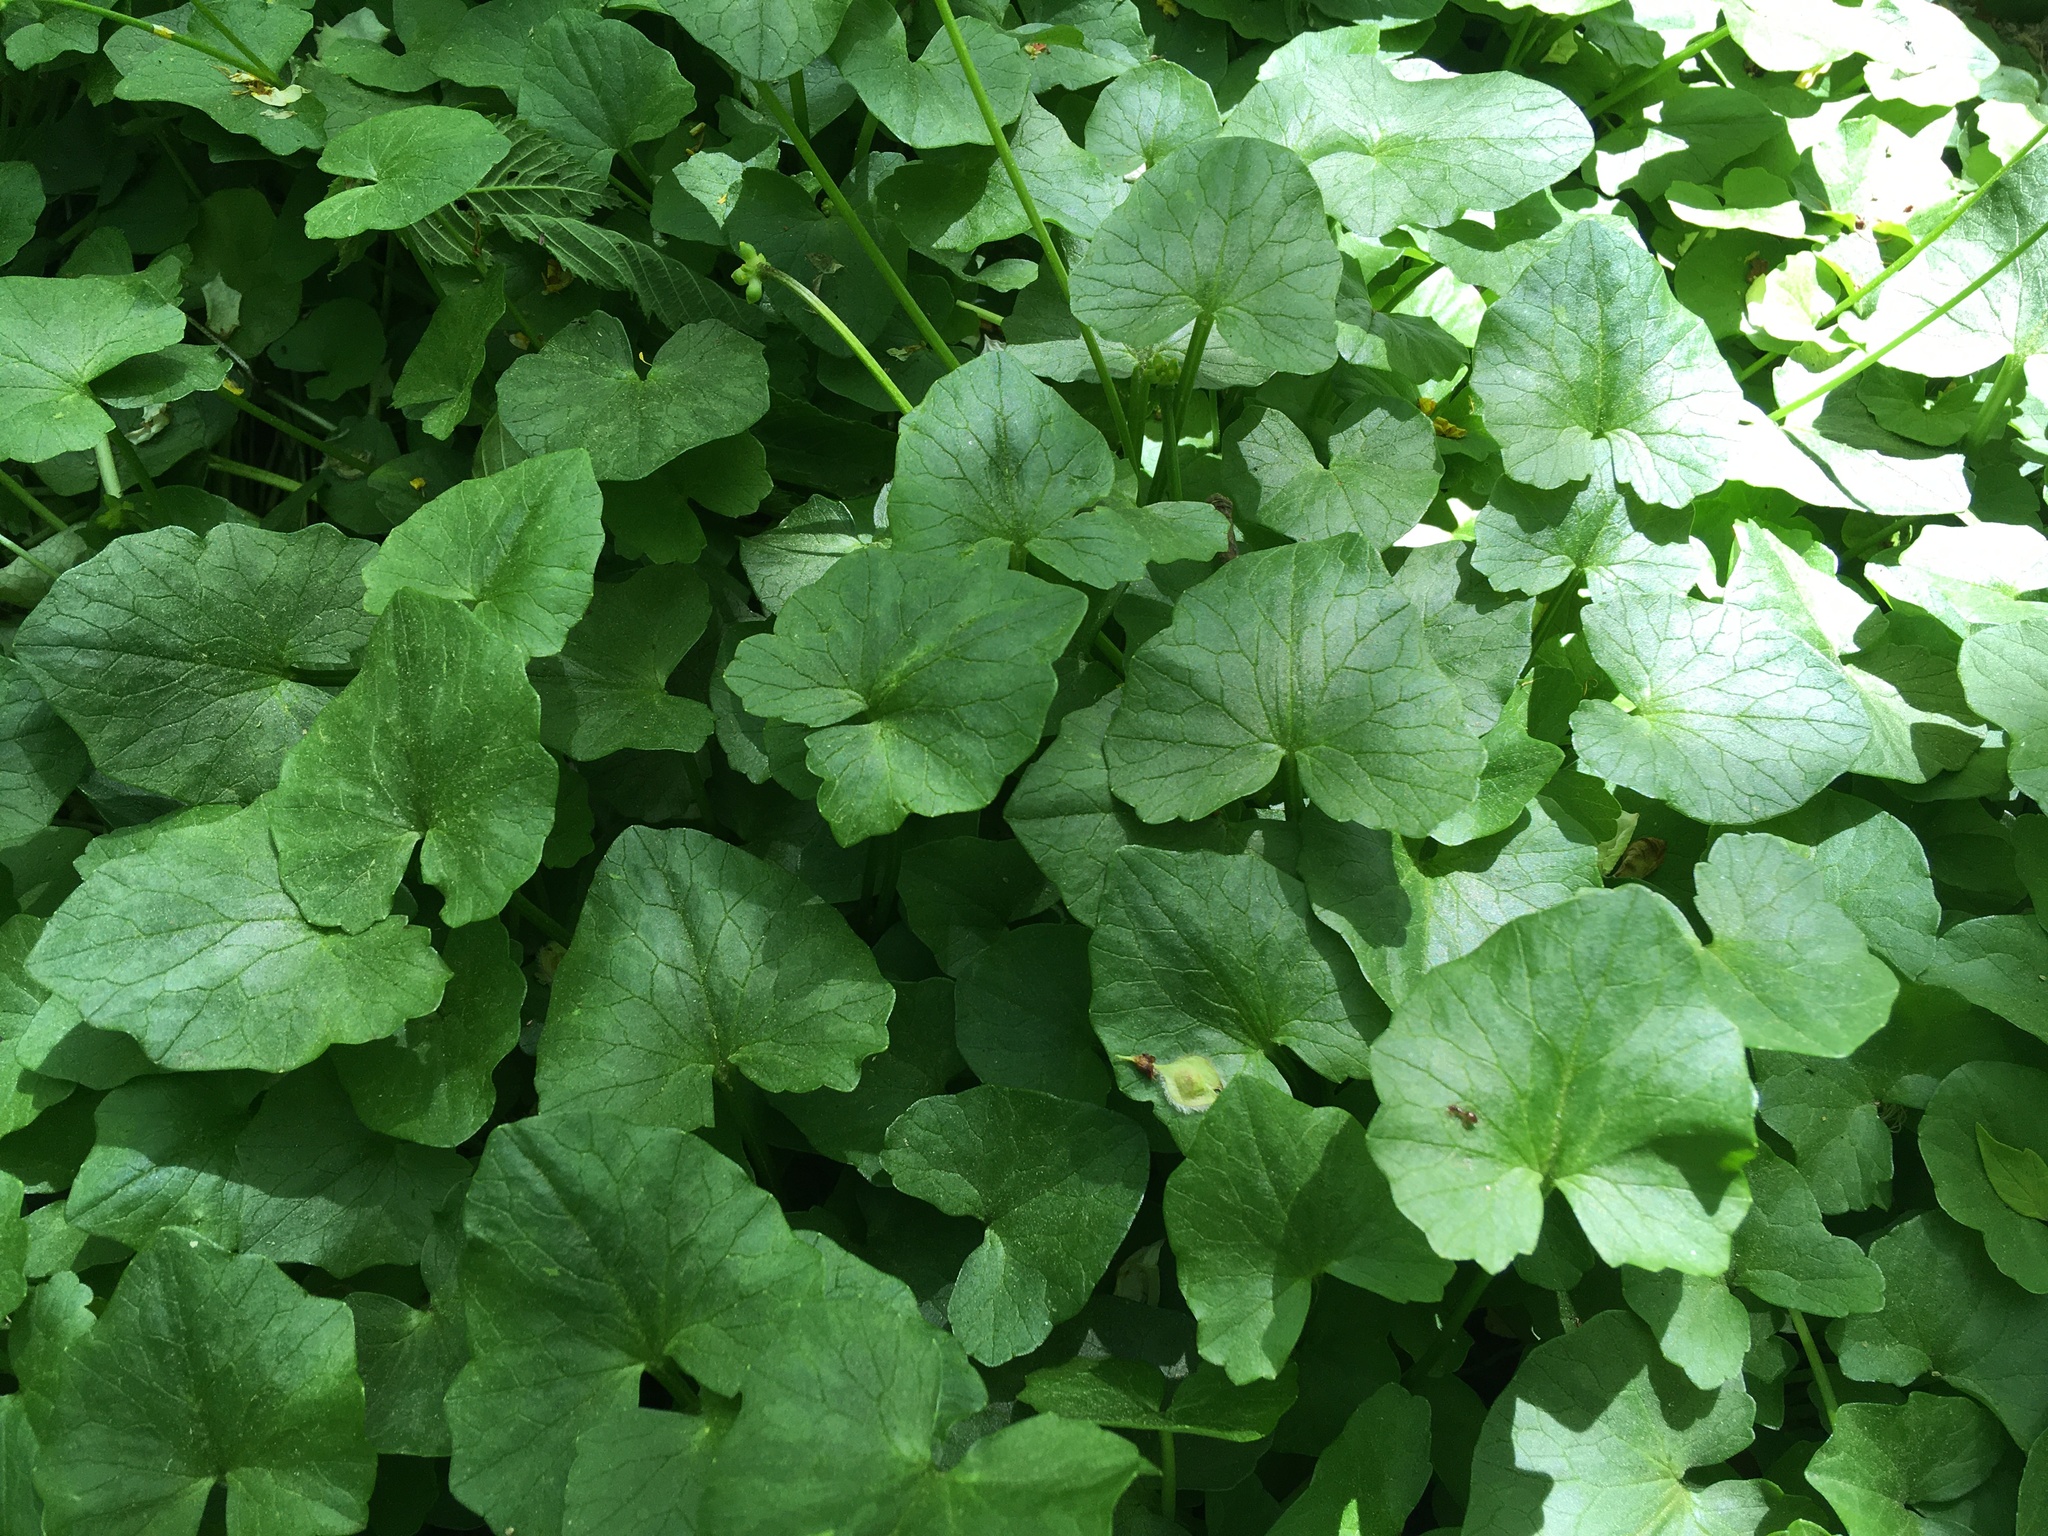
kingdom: Plantae
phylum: Tracheophyta
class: Magnoliopsida
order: Ranunculales
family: Ranunculaceae
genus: Ficaria
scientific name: Ficaria verna
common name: Lesser celandine
